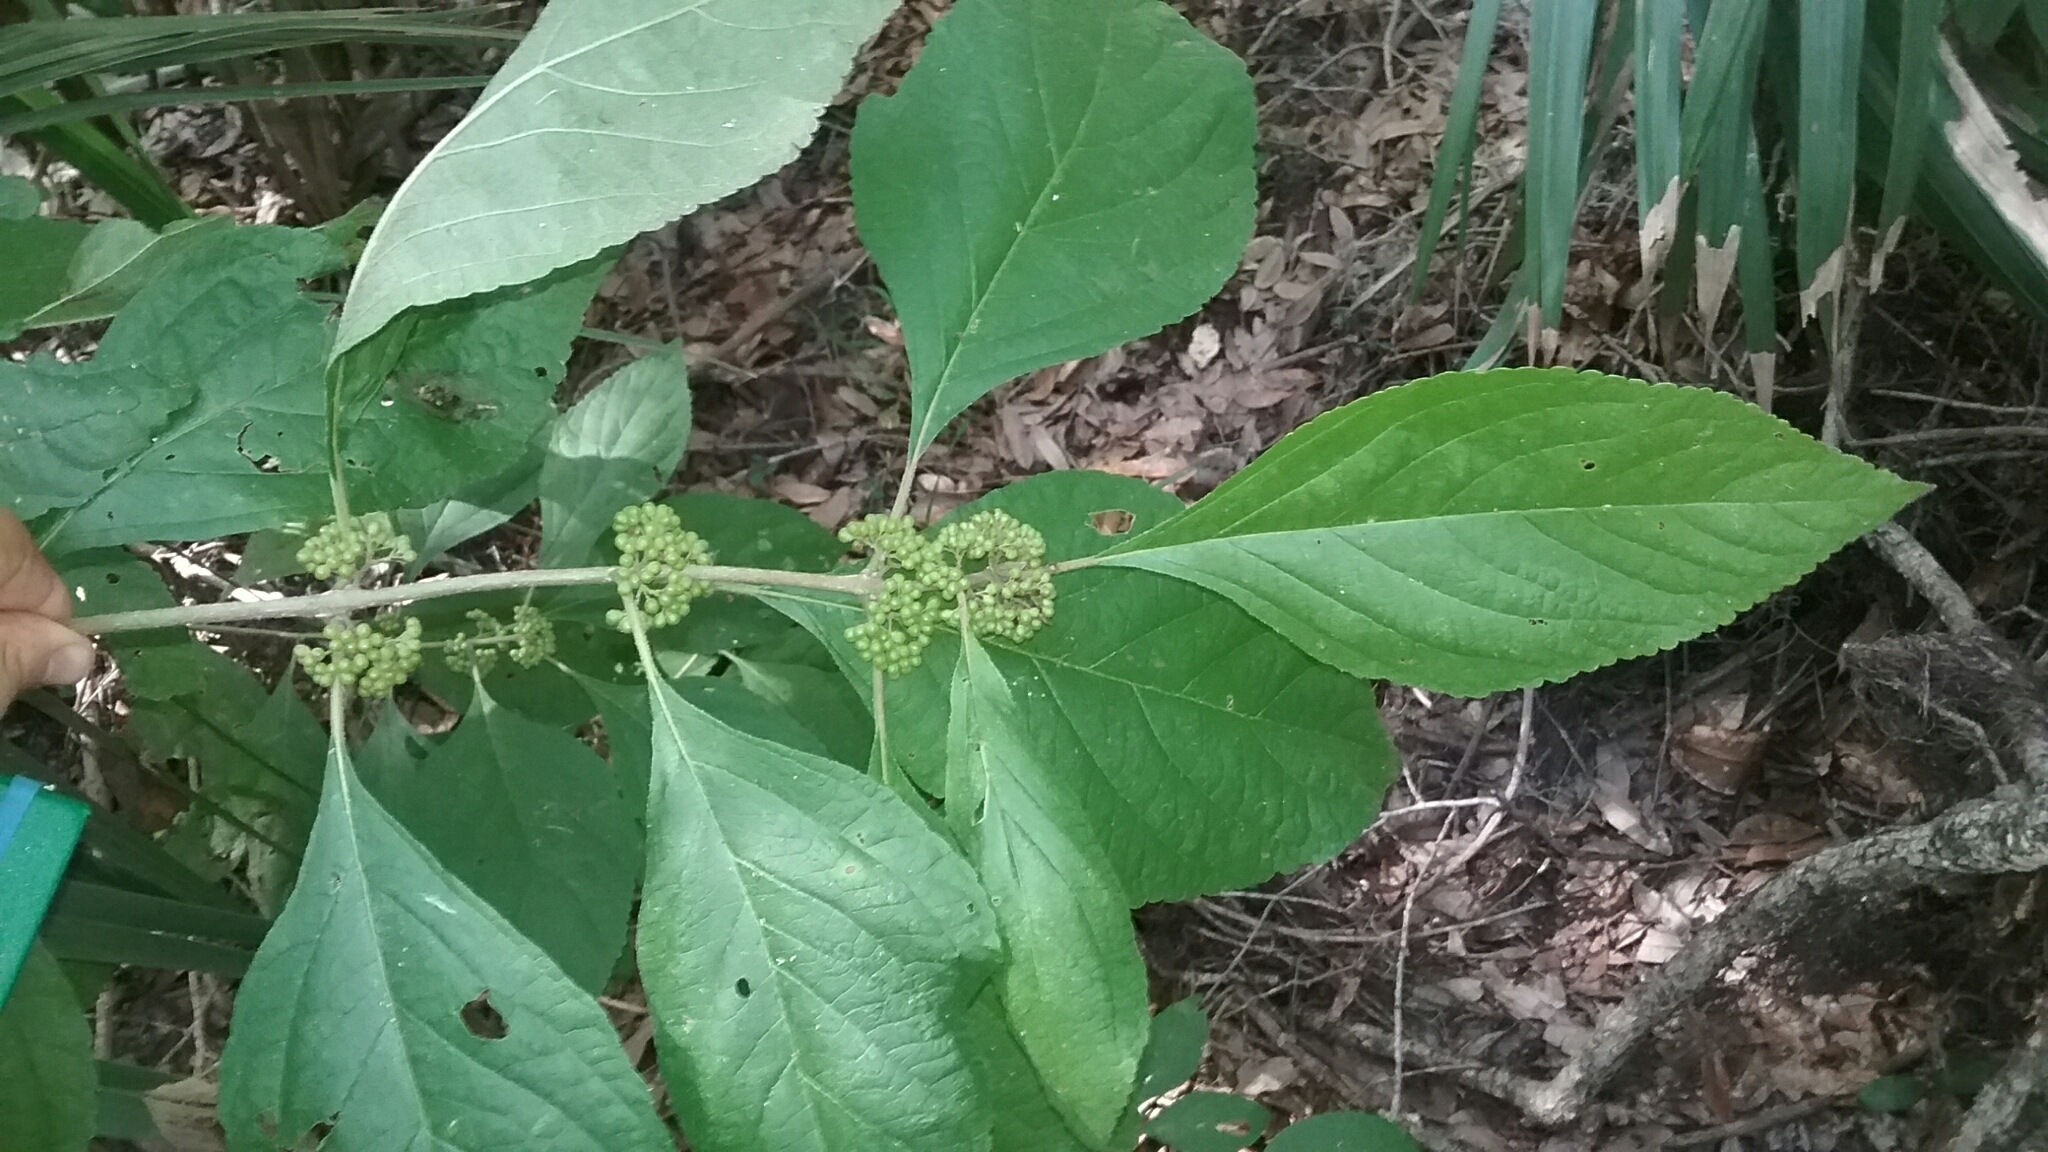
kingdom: Plantae
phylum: Tracheophyta
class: Magnoliopsida
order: Lamiales
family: Lamiaceae
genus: Callicarpa
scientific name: Callicarpa americana
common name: American beautyberry
